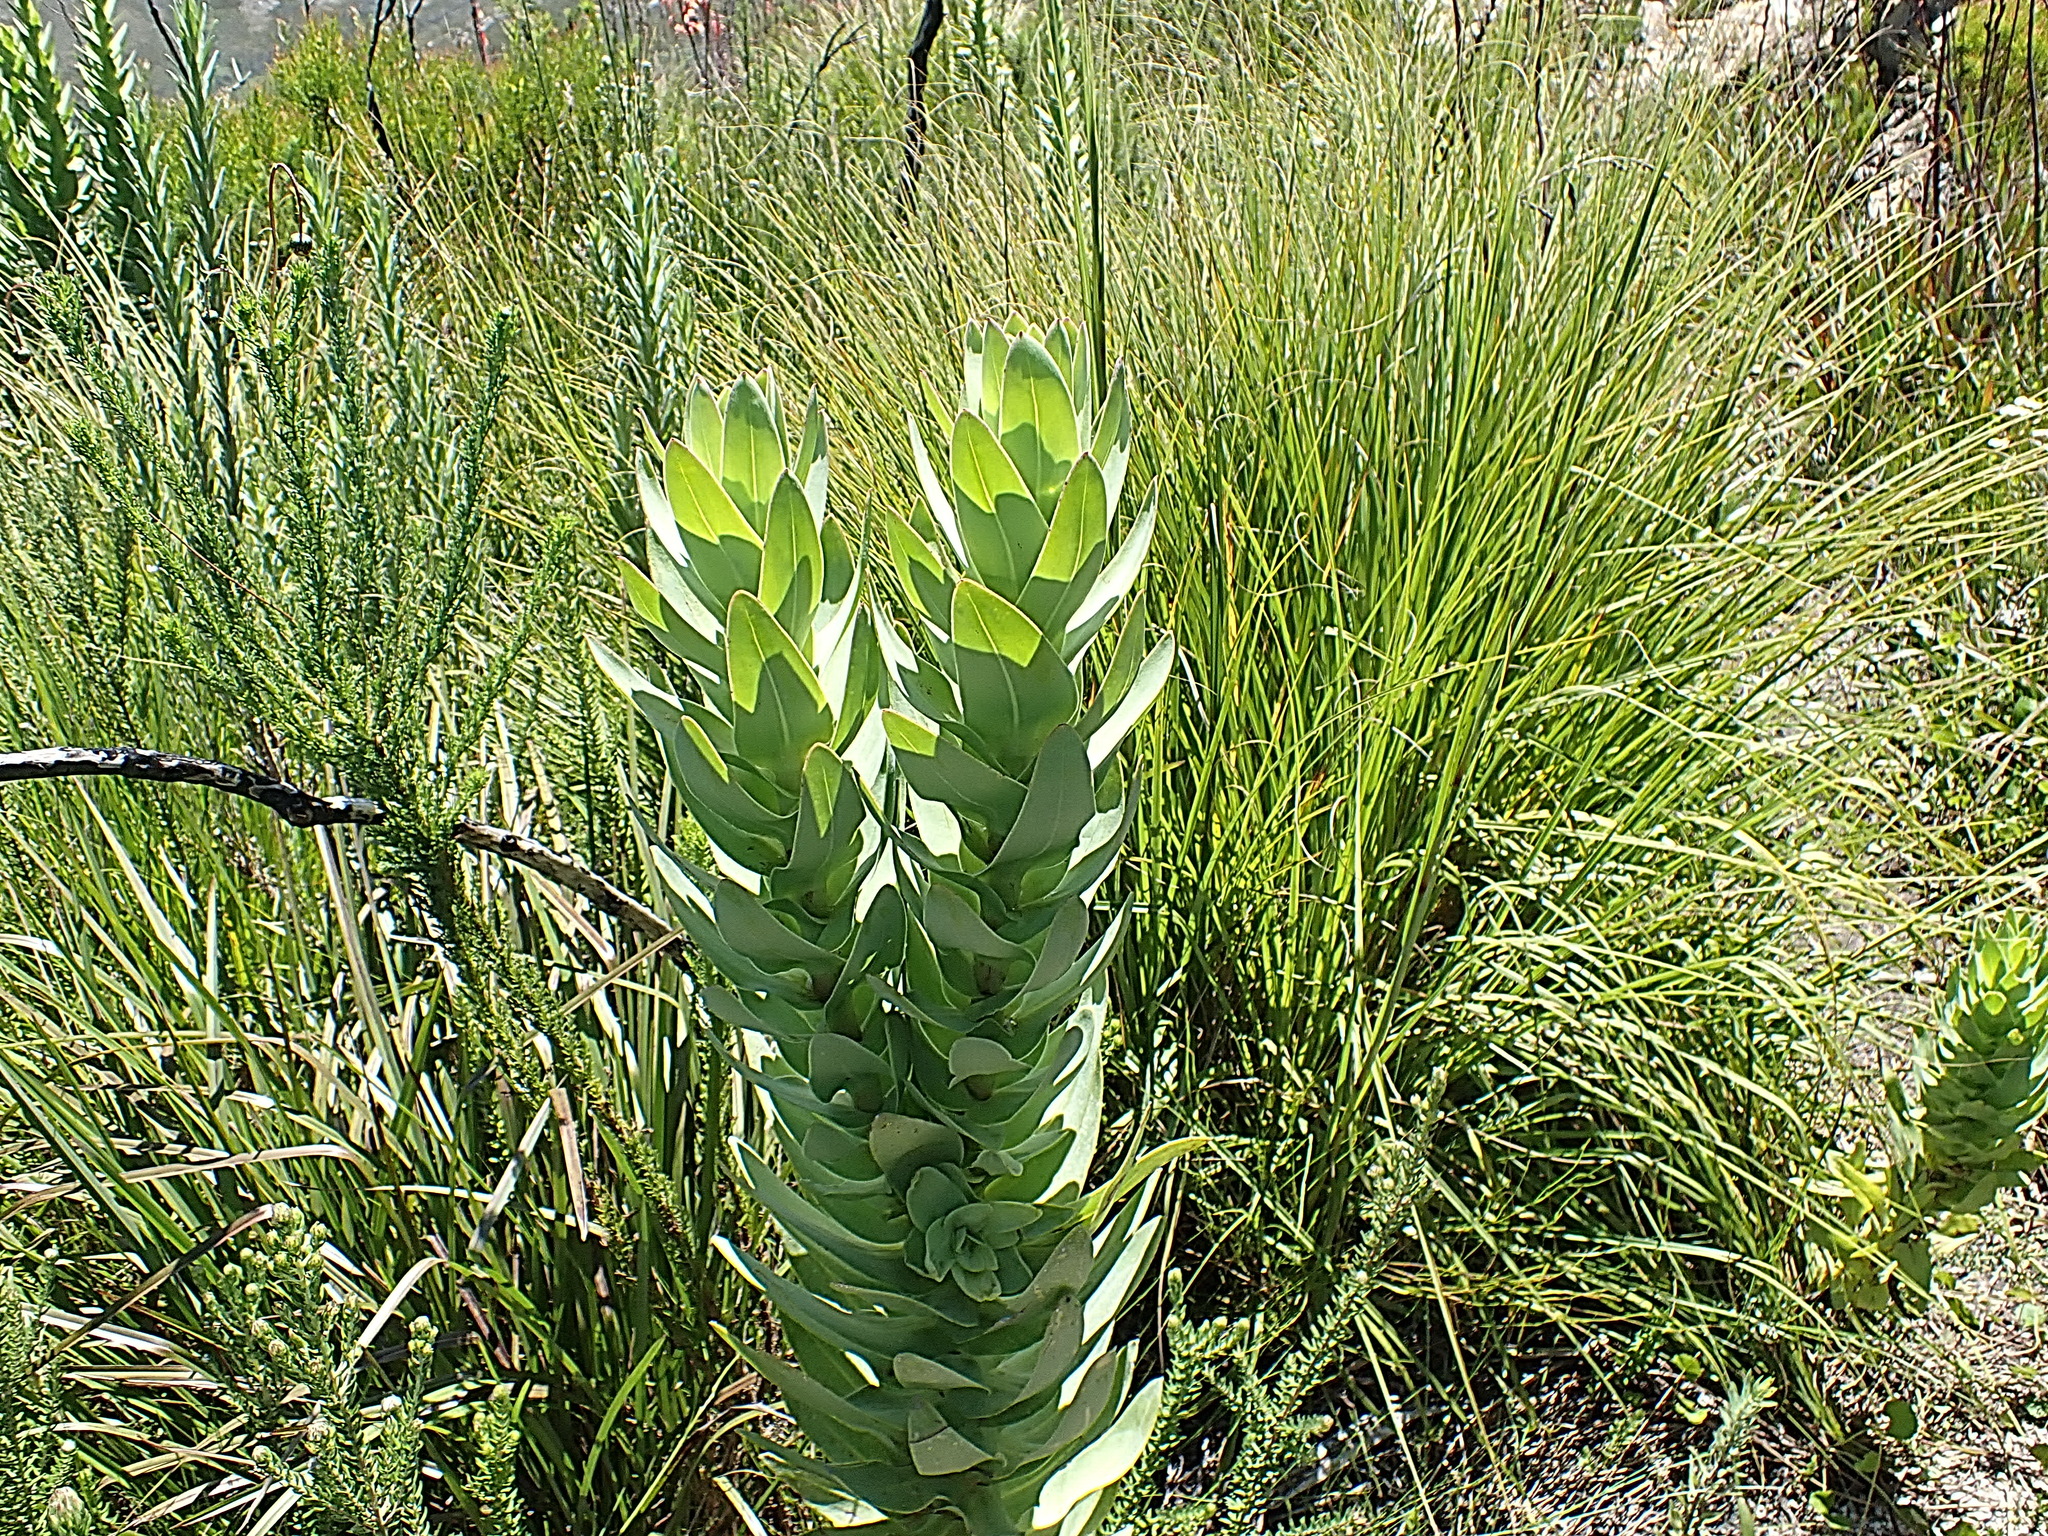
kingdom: Plantae
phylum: Tracheophyta
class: Magnoliopsida
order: Asterales
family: Asteraceae
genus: Osteospermum
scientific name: Osteospermum corymbosum
